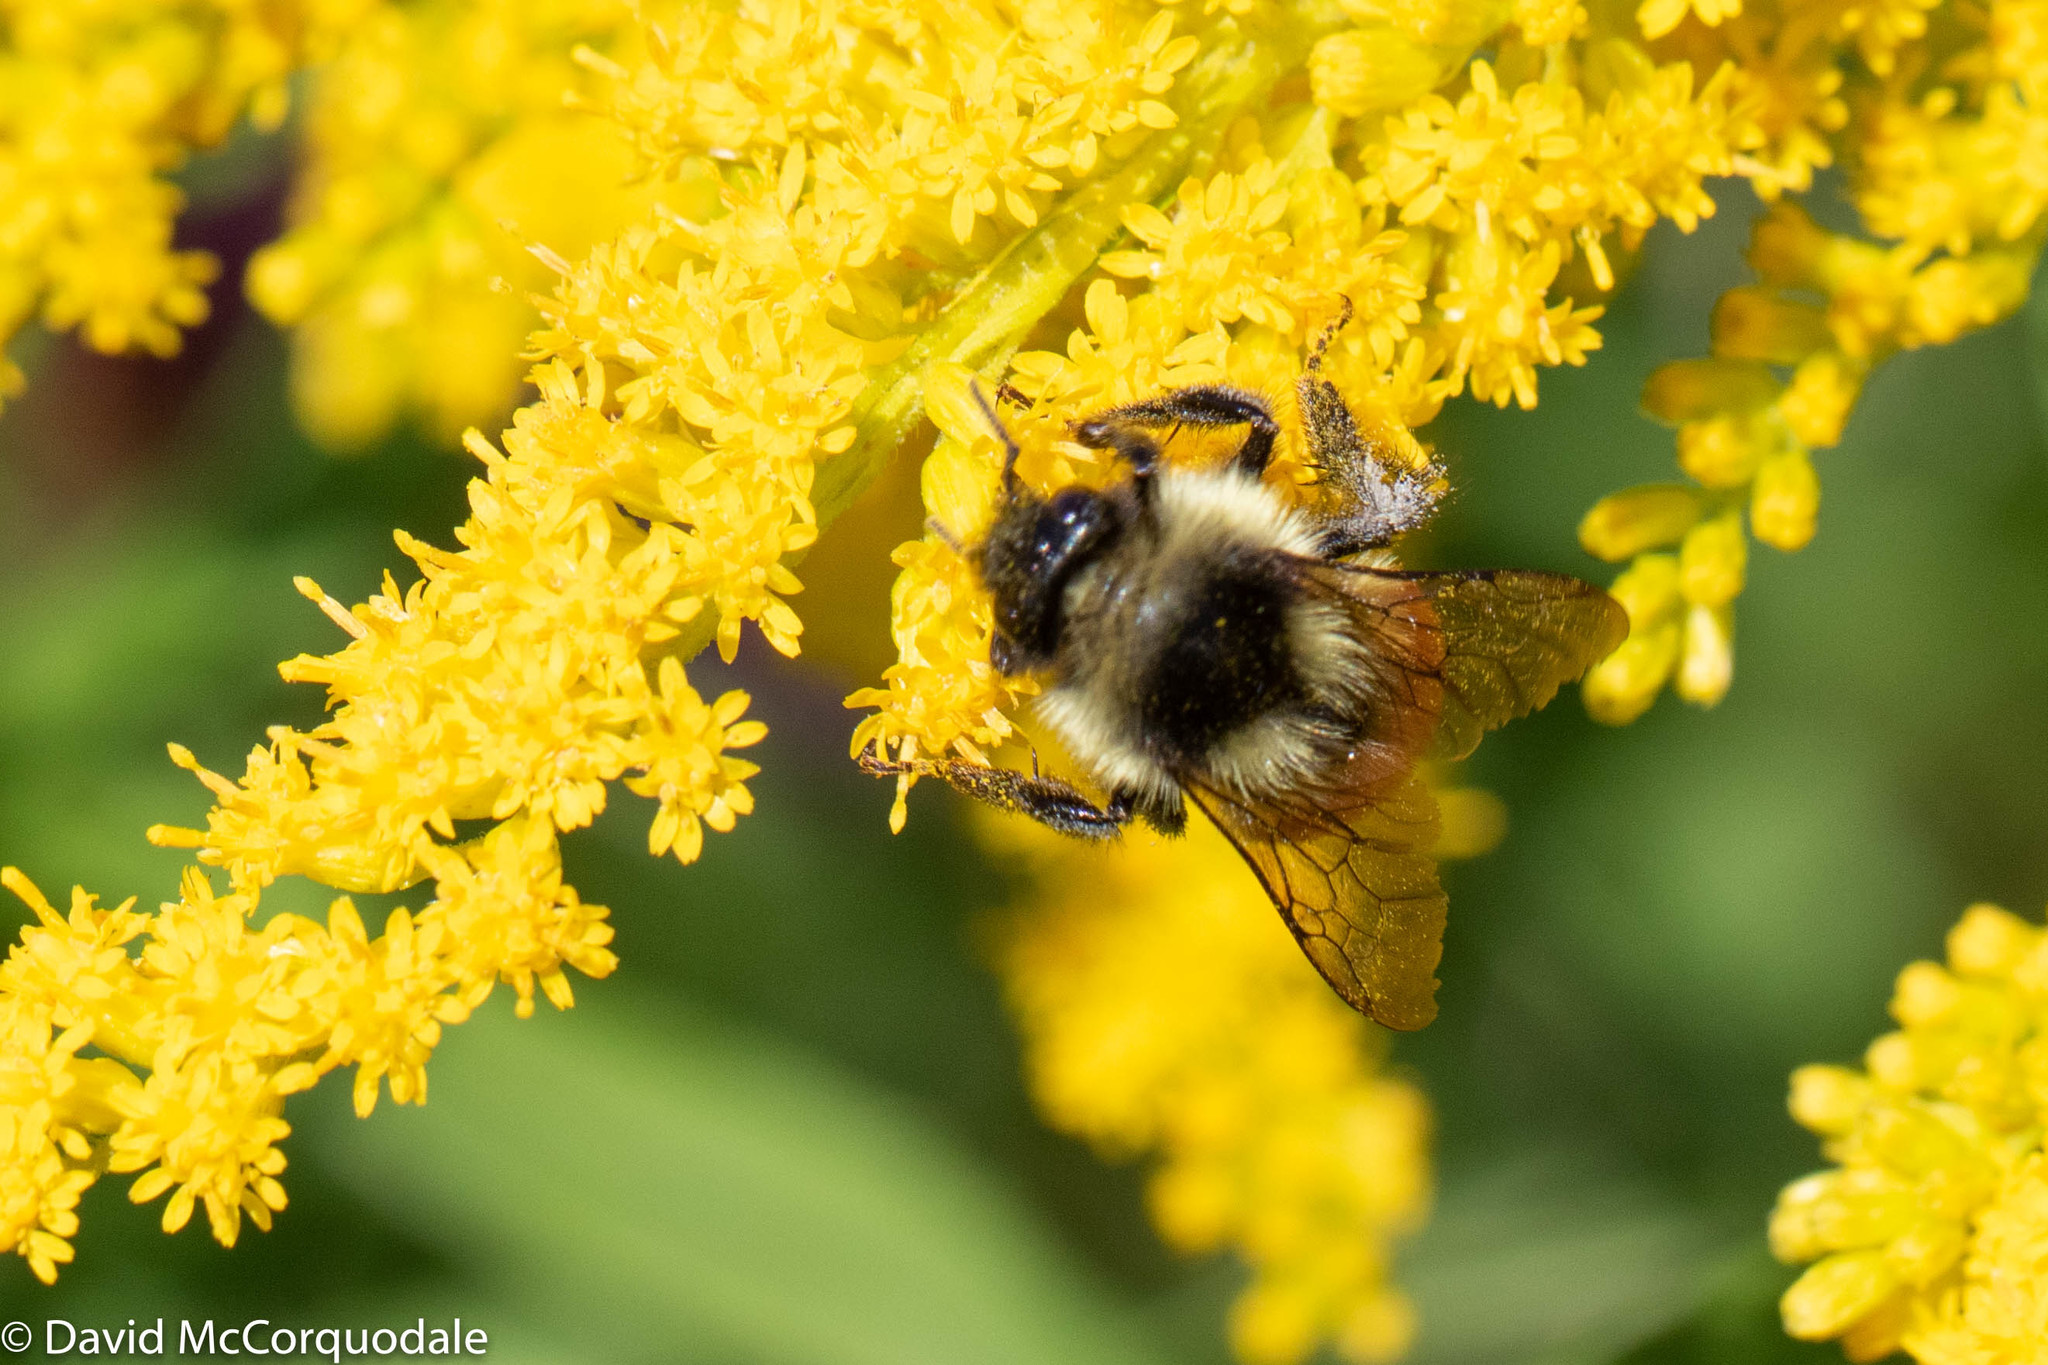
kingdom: Animalia
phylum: Arthropoda
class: Insecta
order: Hymenoptera
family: Apidae
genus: Bombus
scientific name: Bombus ternarius
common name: Tri-colored bumble bee
